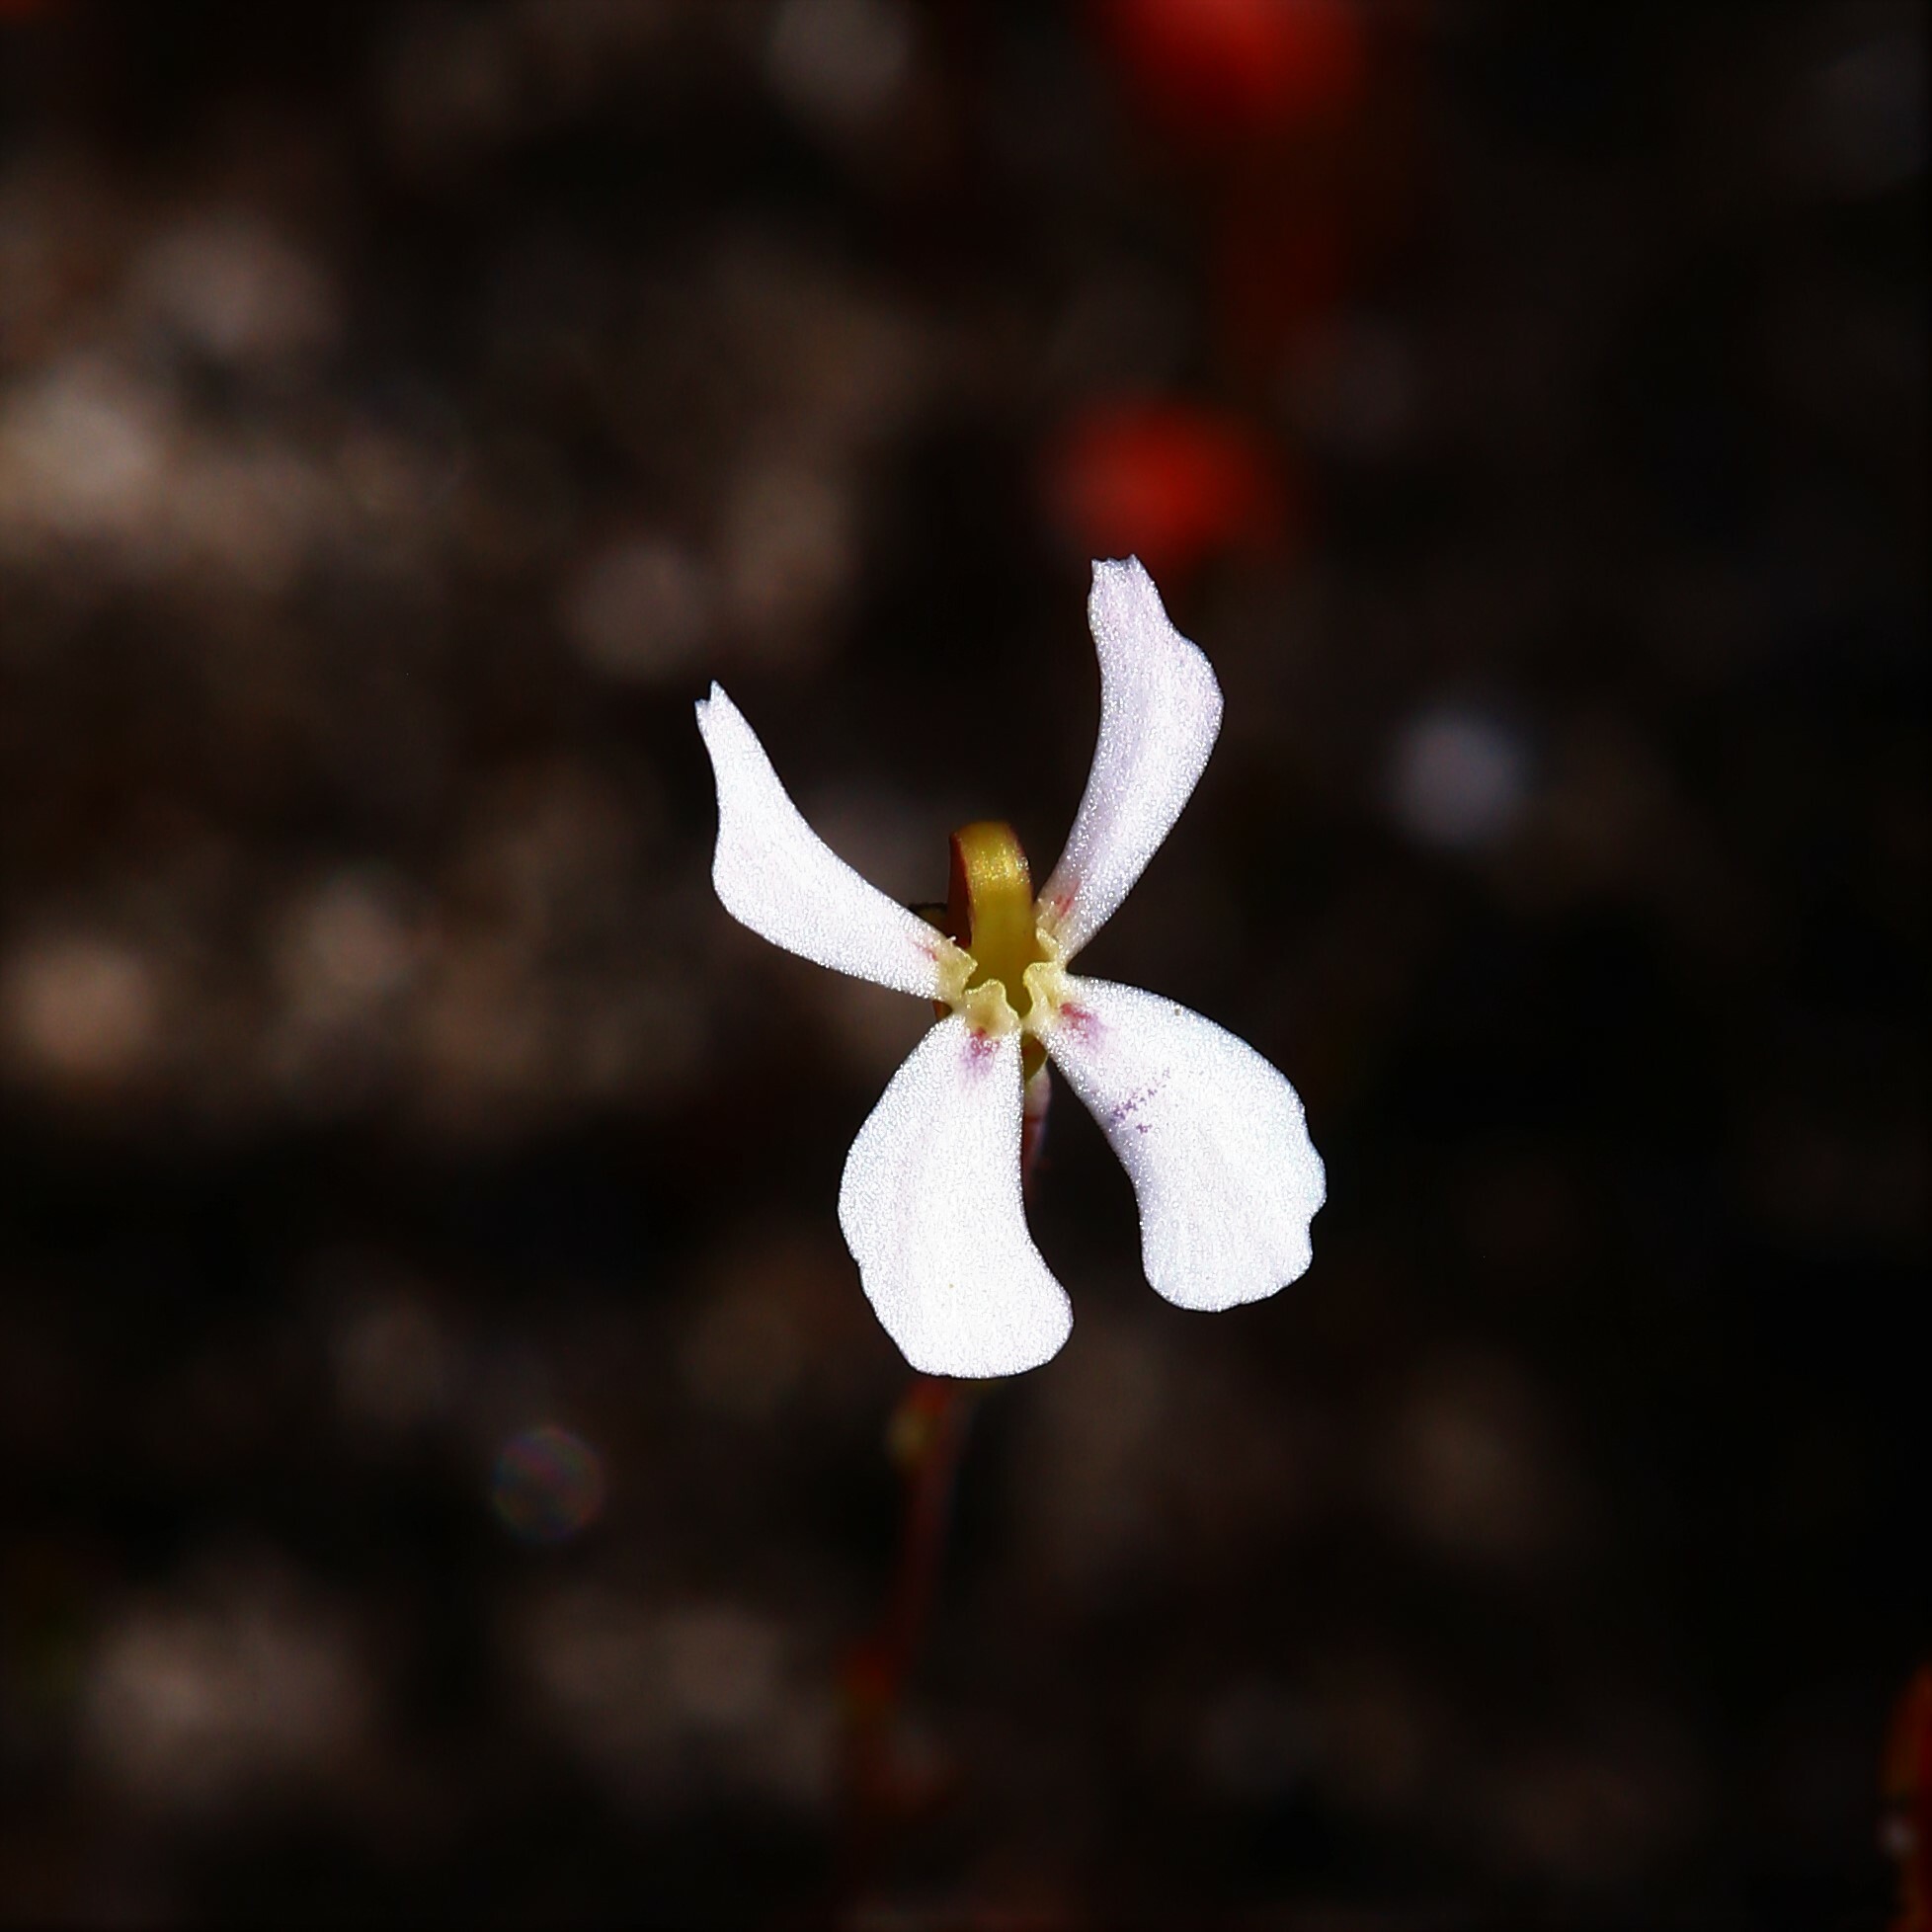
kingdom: Plantae
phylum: Tracheophyta
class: Magnoliopsida
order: Asterales
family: Stylidiaceae
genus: Stylidium
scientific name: Stylidium udusicola
